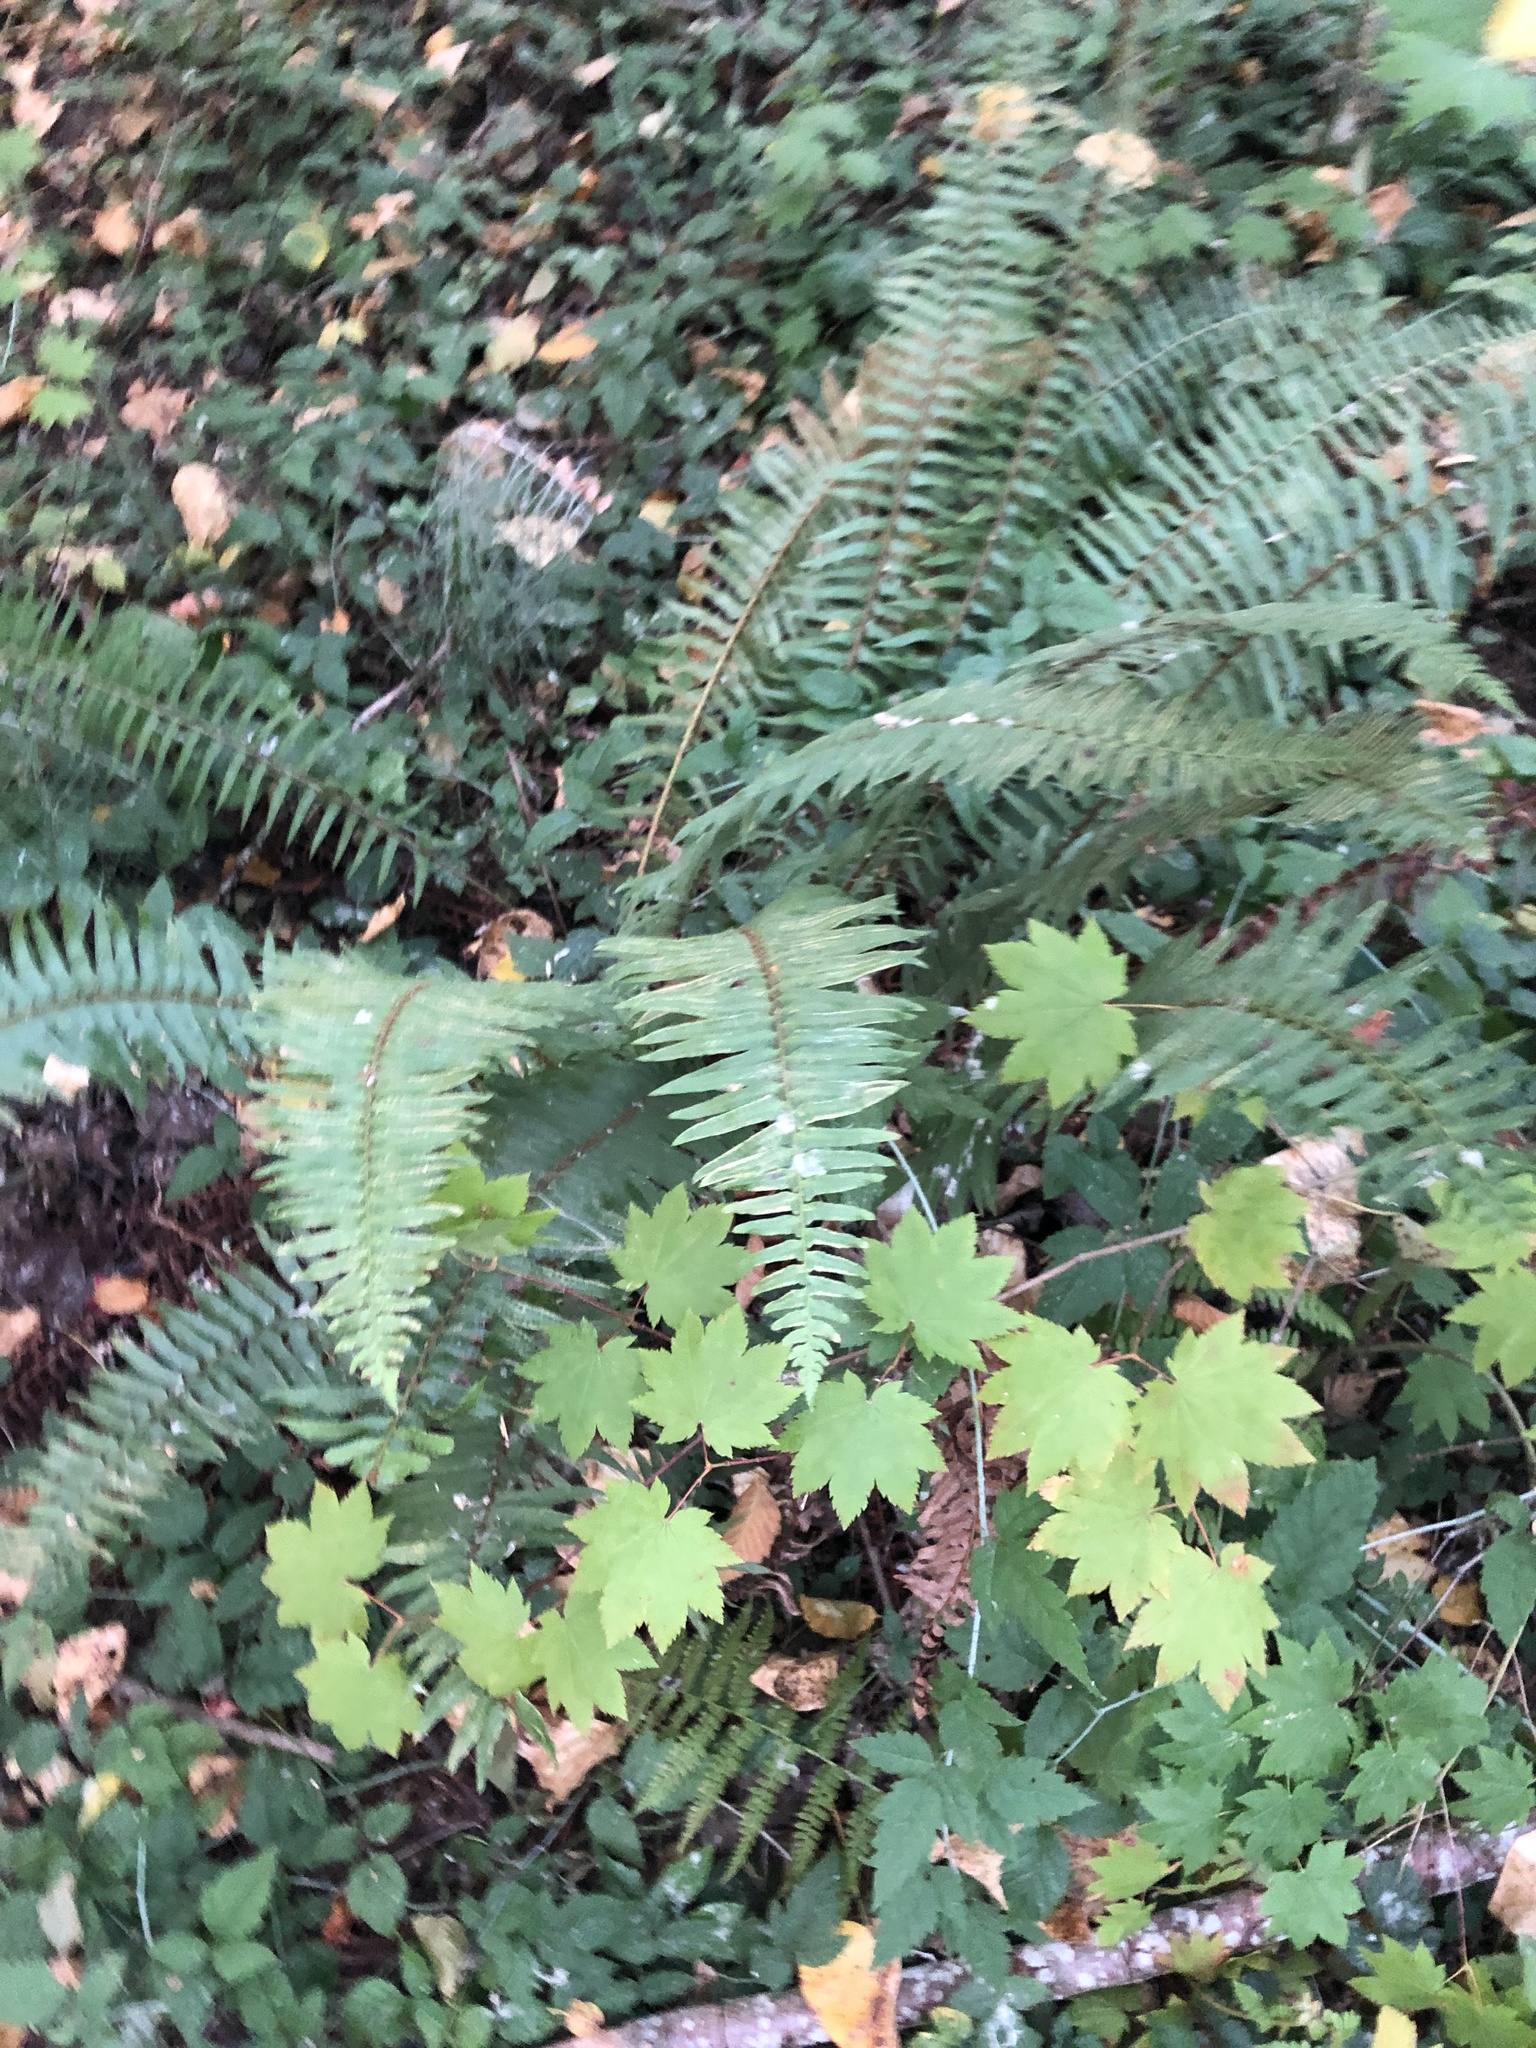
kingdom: Plantae
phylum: Tracheophyta
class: Polypodiopsida
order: Polypodiales
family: Dryopteridaceae
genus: Polystichum
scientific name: Polystichum munitum
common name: Western sword-fern
